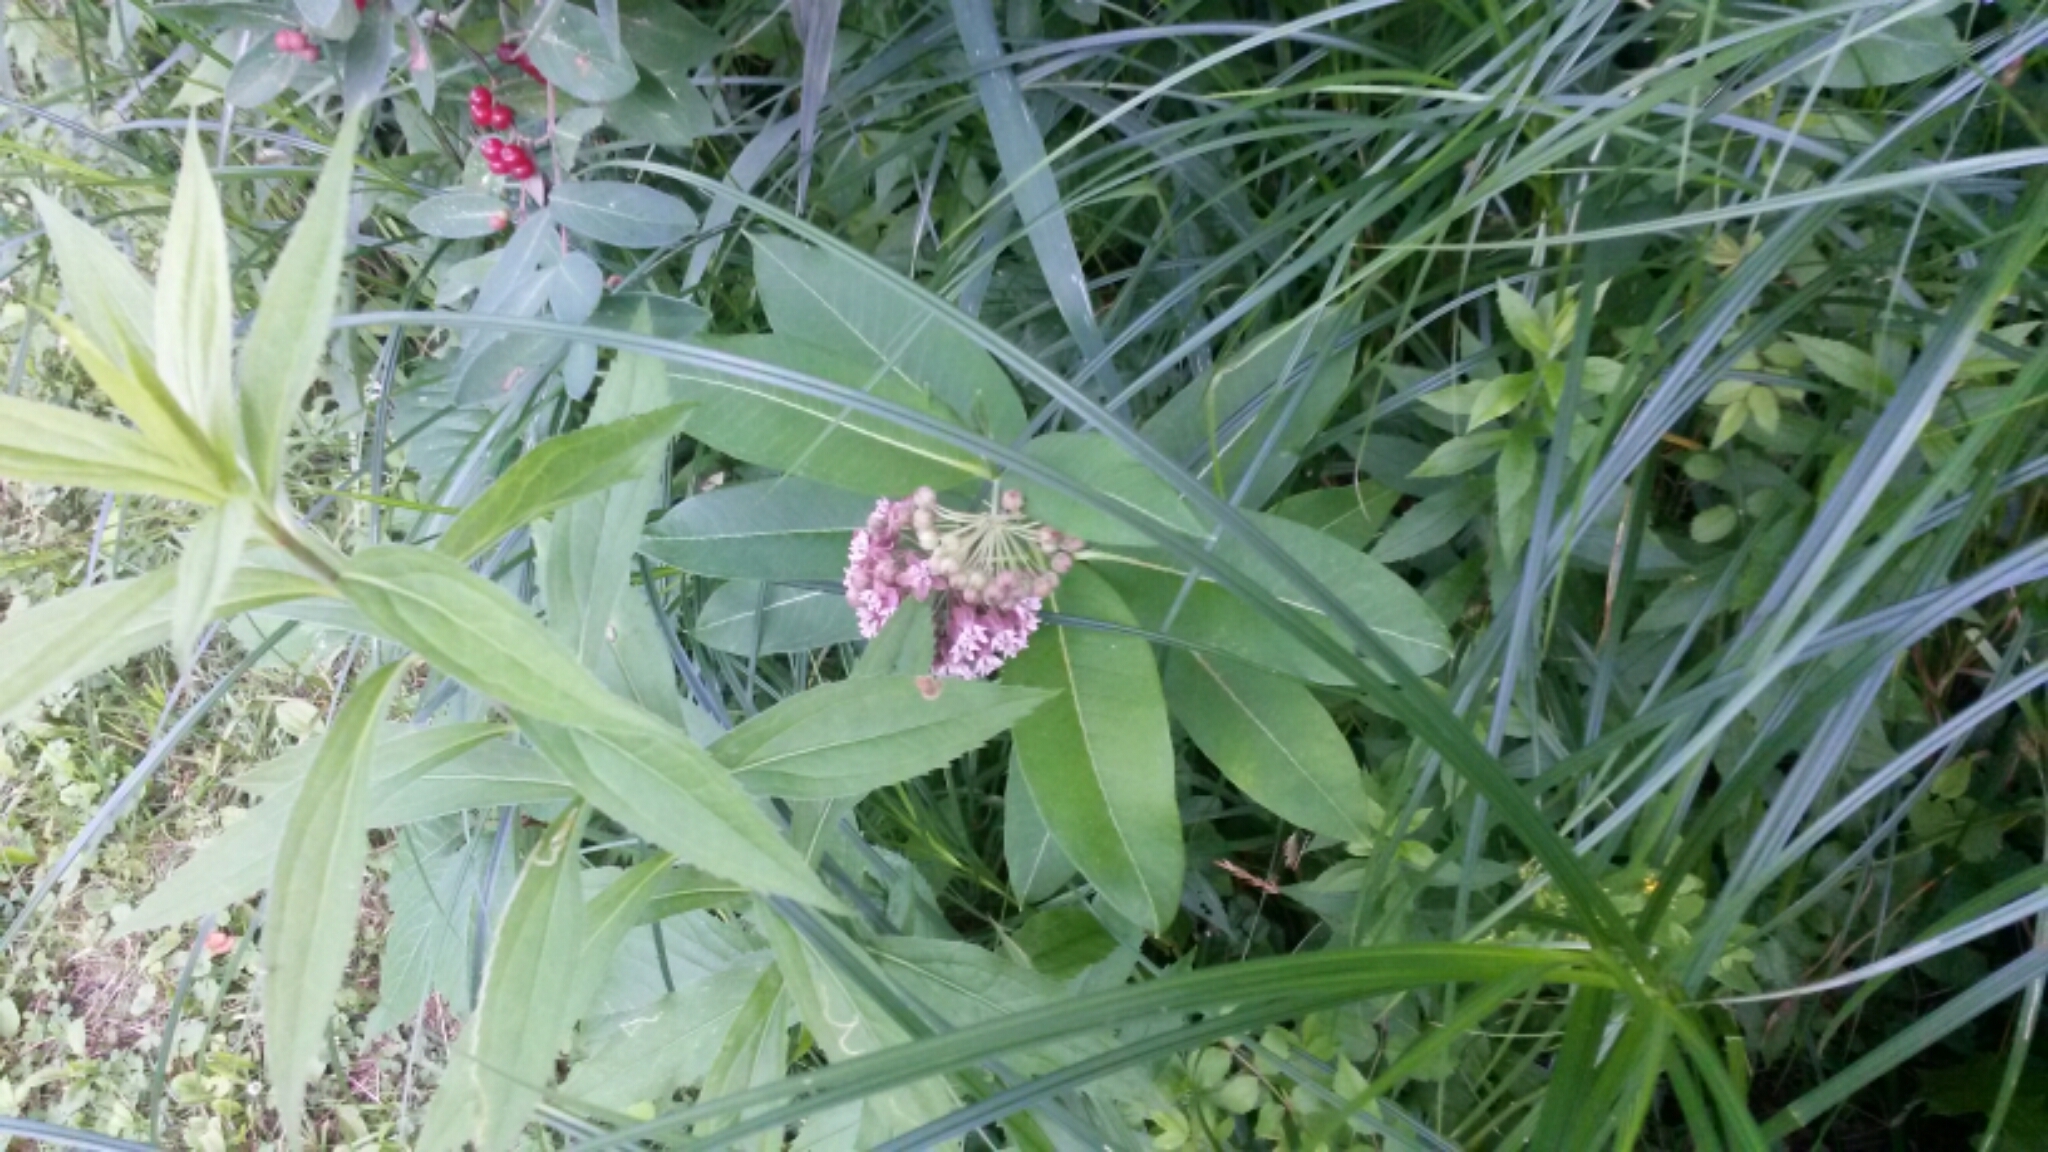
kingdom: Plantae
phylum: Tracheophyta
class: Magnoliopsida
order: Gentianales
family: Apocynaceae
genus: Asclepias
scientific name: Asclepias syriaca
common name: Common milkweed
